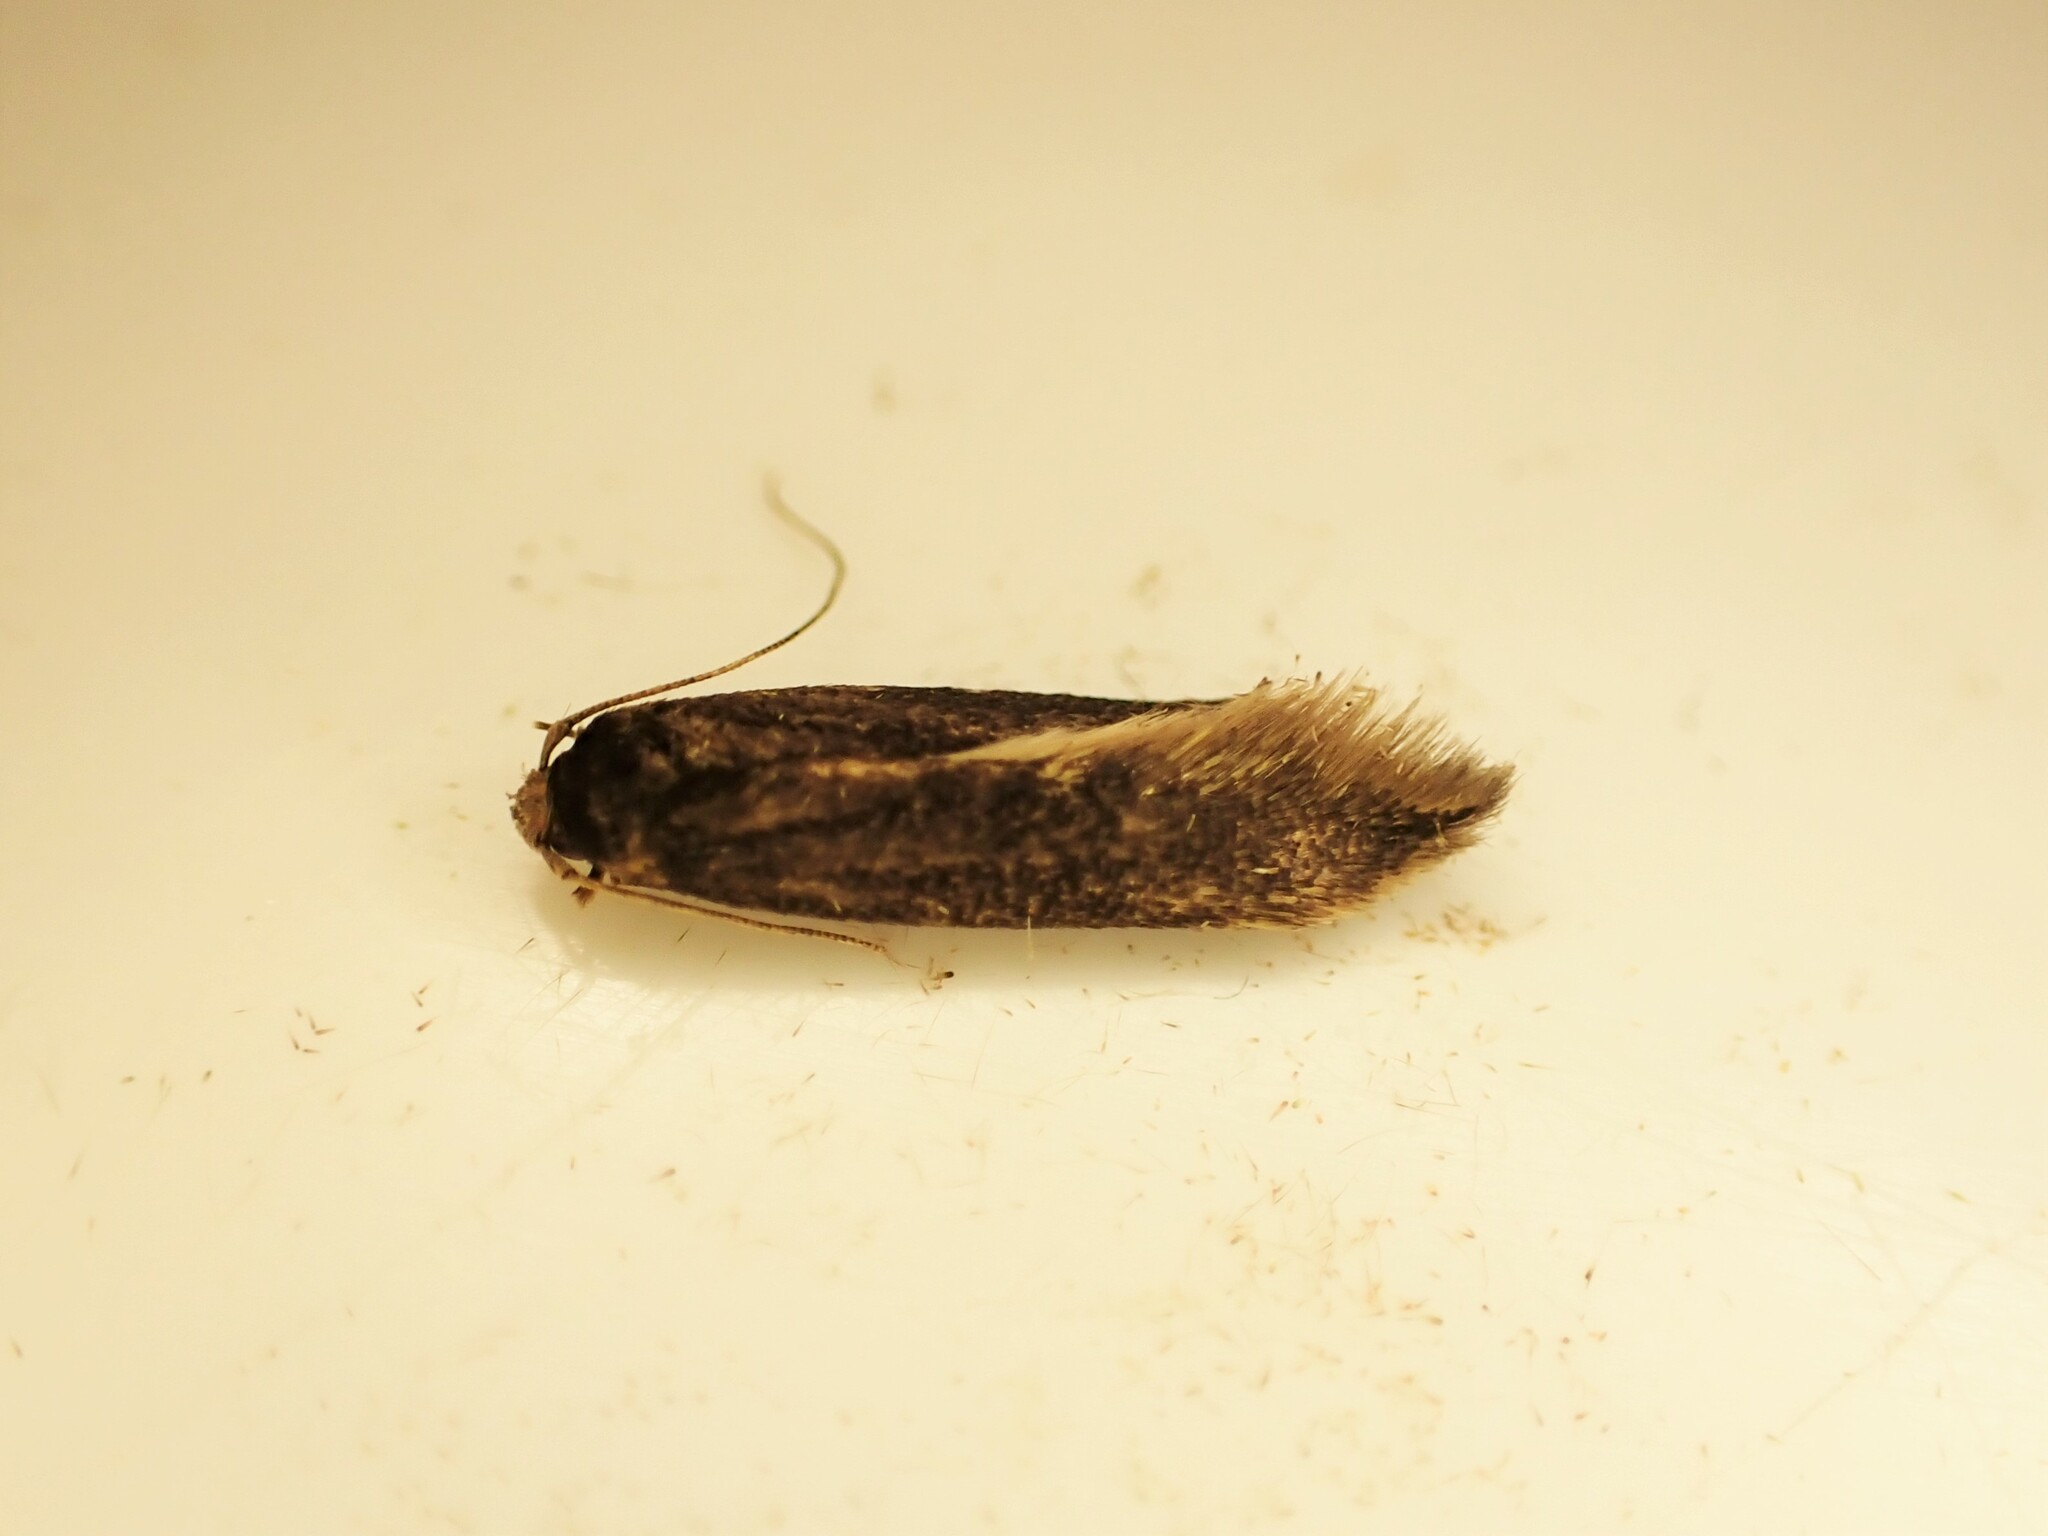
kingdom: Animalia
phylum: Arthropoda
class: Insecta
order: Lepidoptera
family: Tineidae
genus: Opogona
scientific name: Opogona omoscopa
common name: Moth
